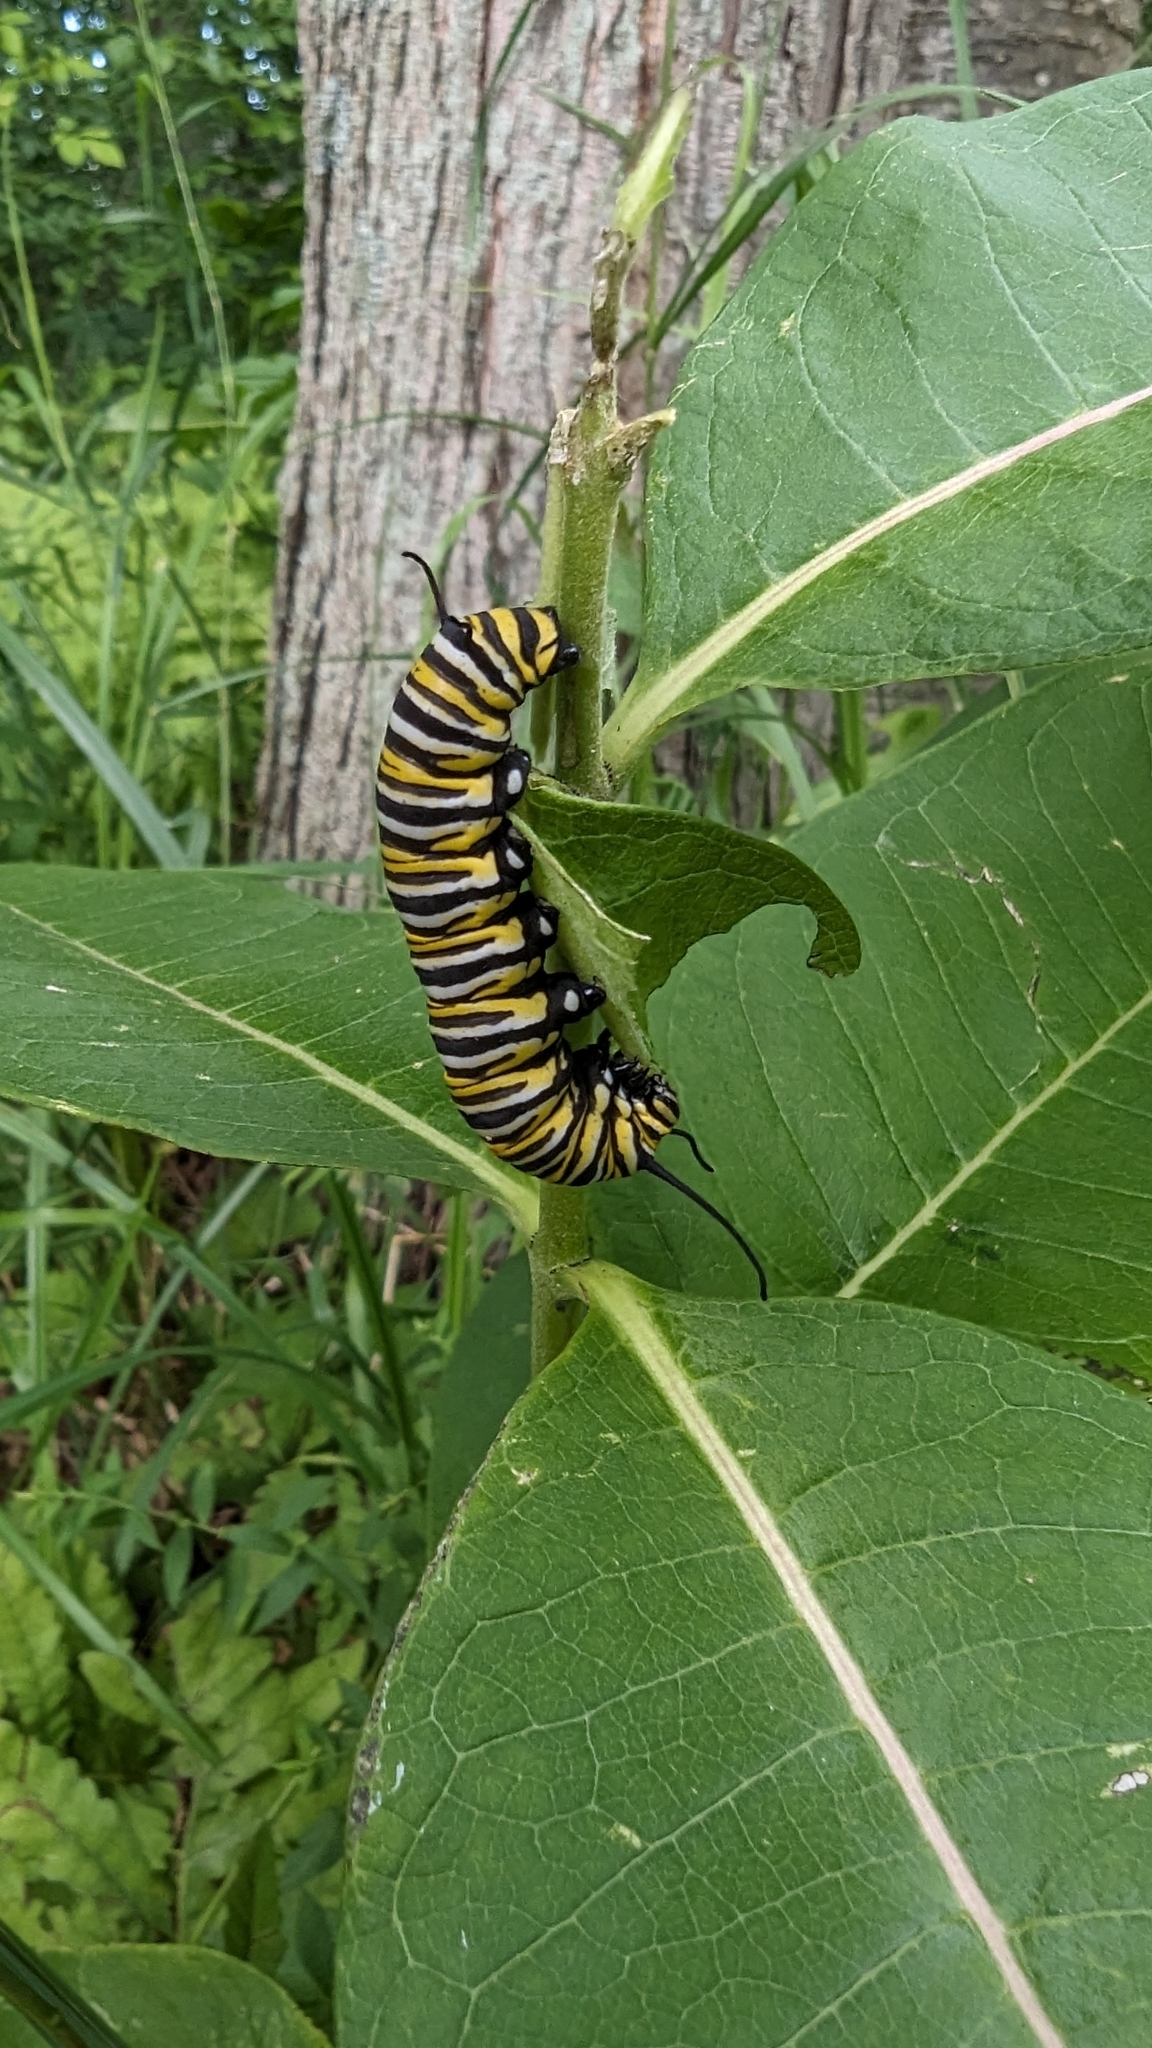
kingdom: Animalia
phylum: Arthropoda
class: Insecta
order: Lepidoptera
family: Nymphalidae
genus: Danaus
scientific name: Danaus plexippus
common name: Monarch
